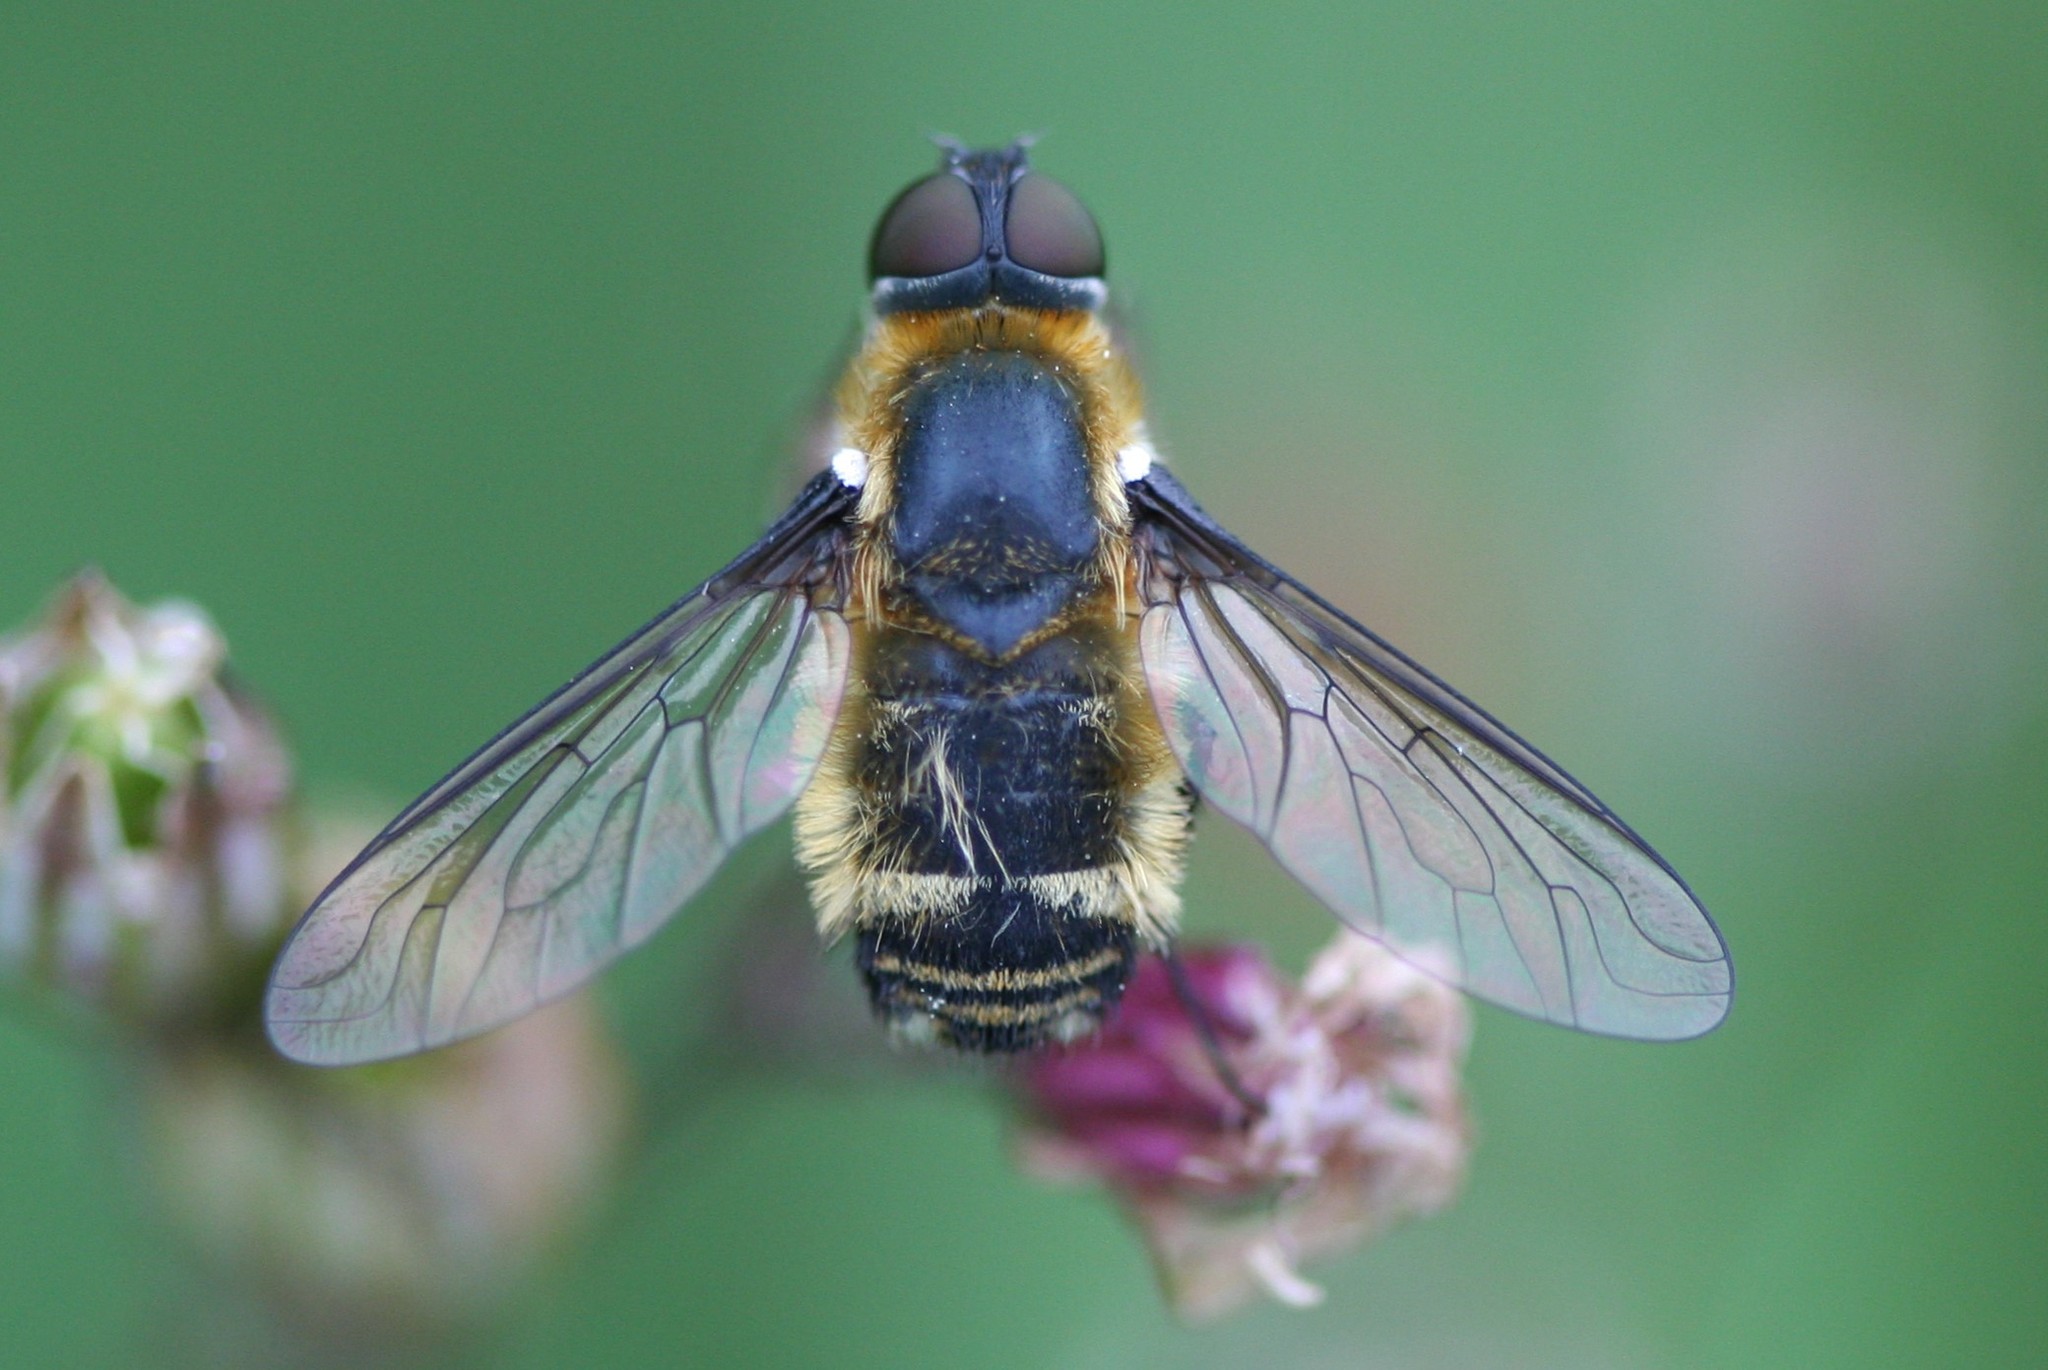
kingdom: Animalia
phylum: Arthropoda
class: Insecta
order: Diptera
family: Bombyliidae
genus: Villa
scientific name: Villa cingulata
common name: Downland villa
